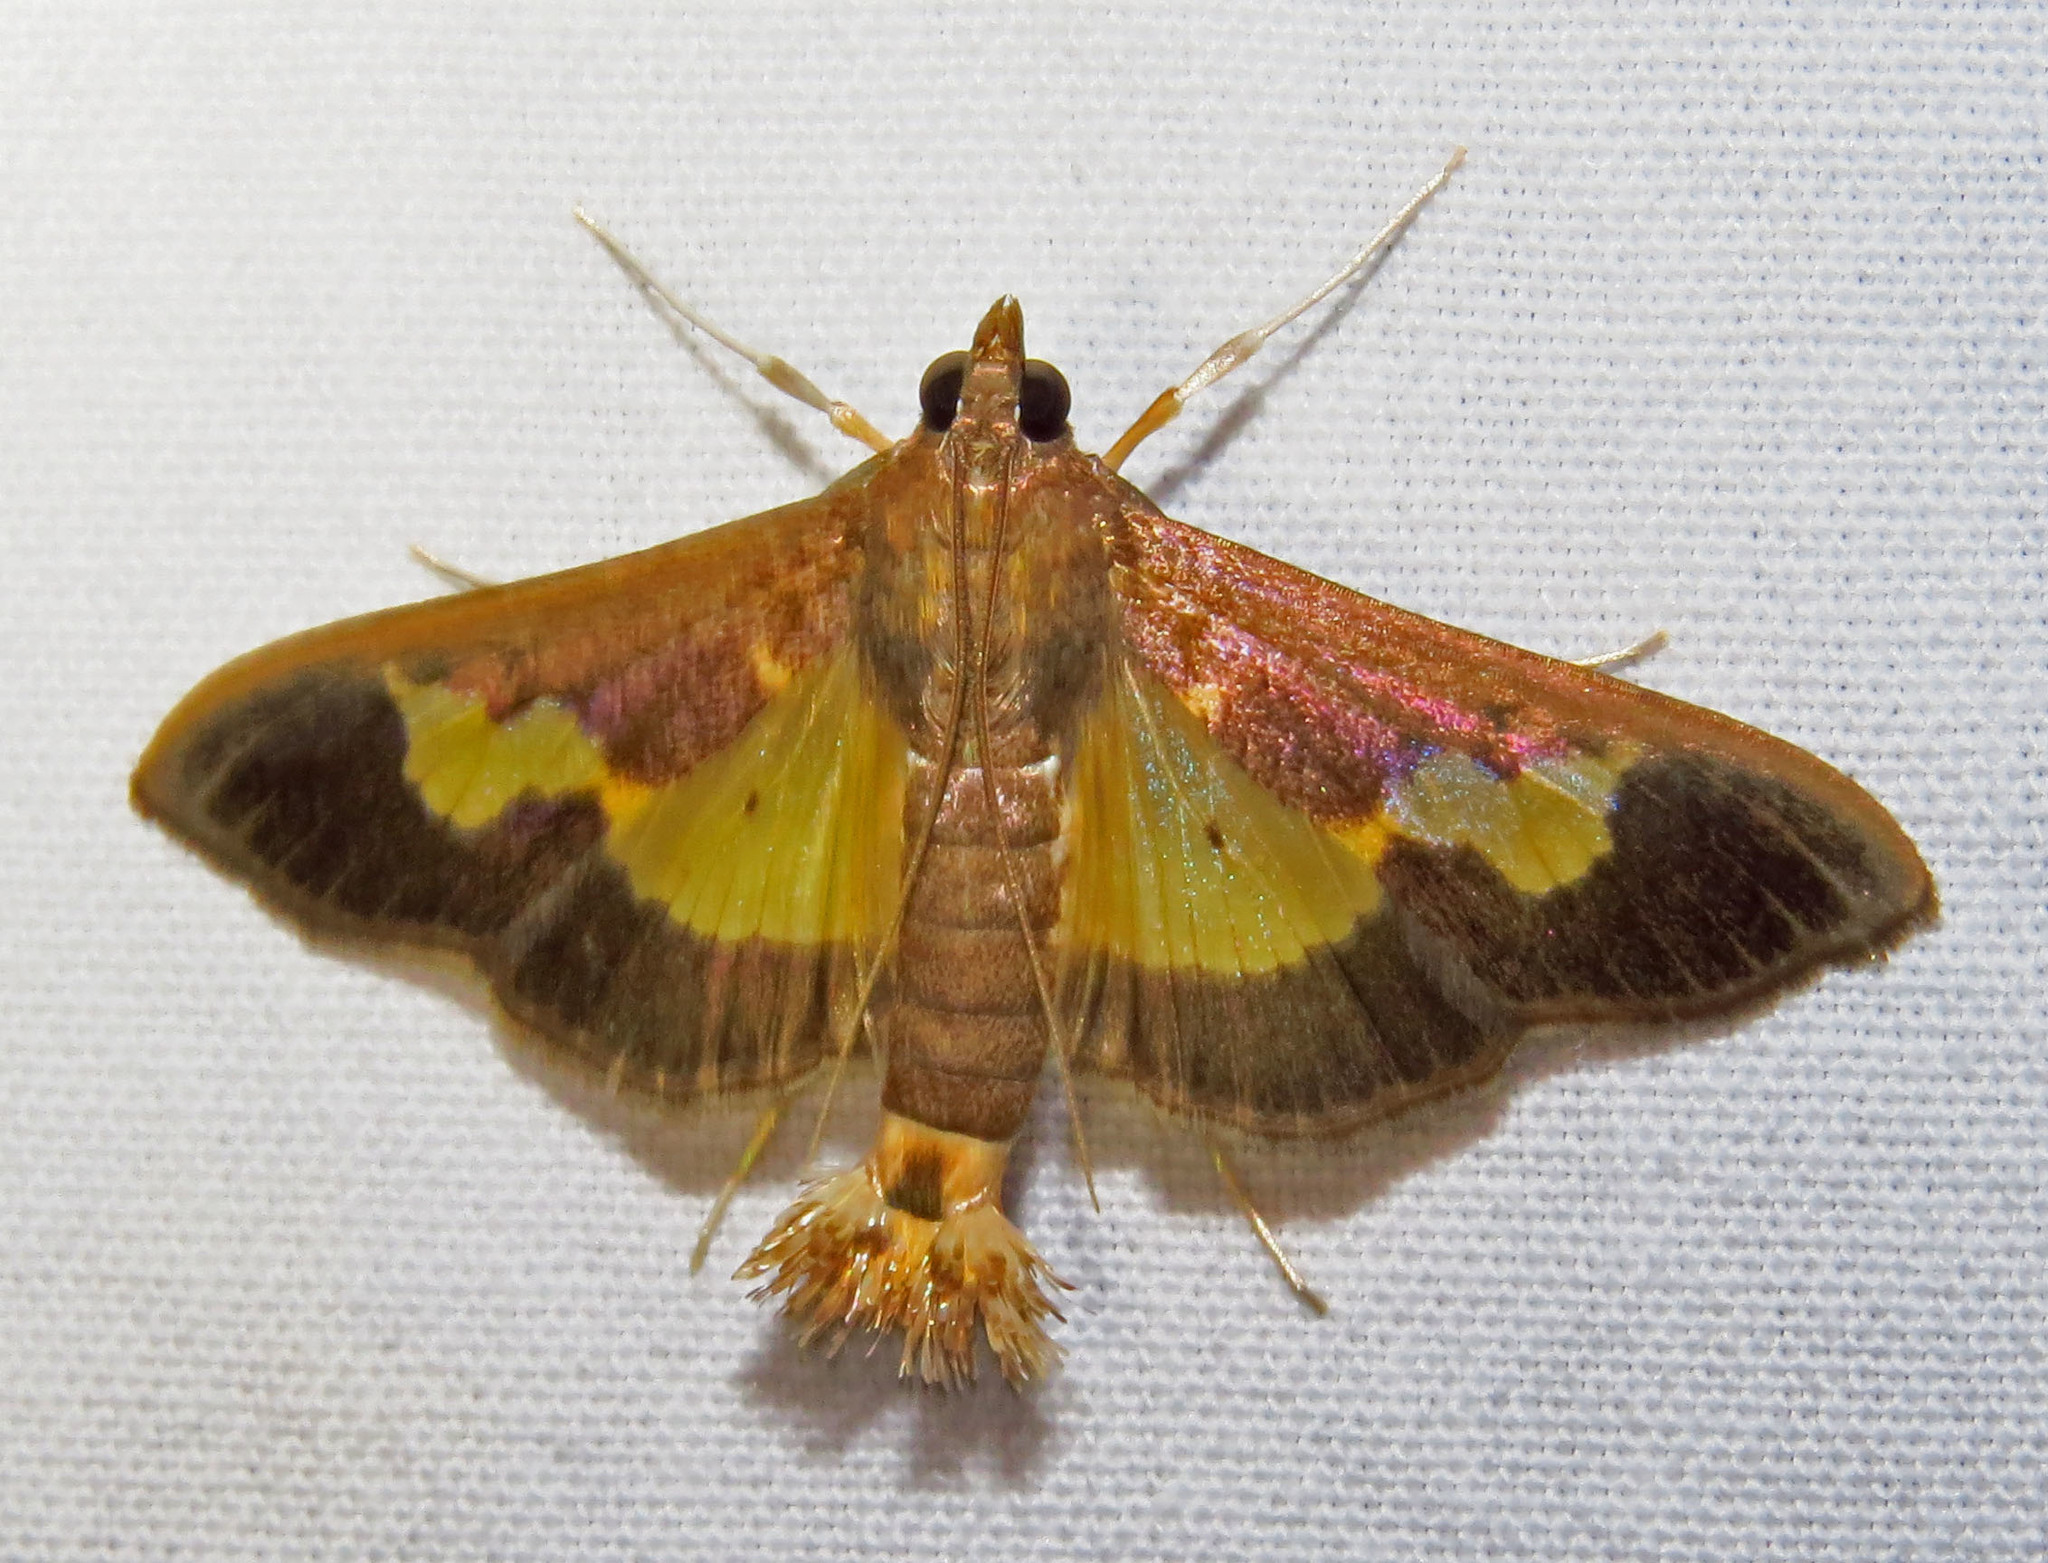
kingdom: Animalia
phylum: Arthropoda
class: Insecta
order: Lepidoptera
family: Crambidae
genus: Cryptographis
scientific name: Cryptographis nitidalis
